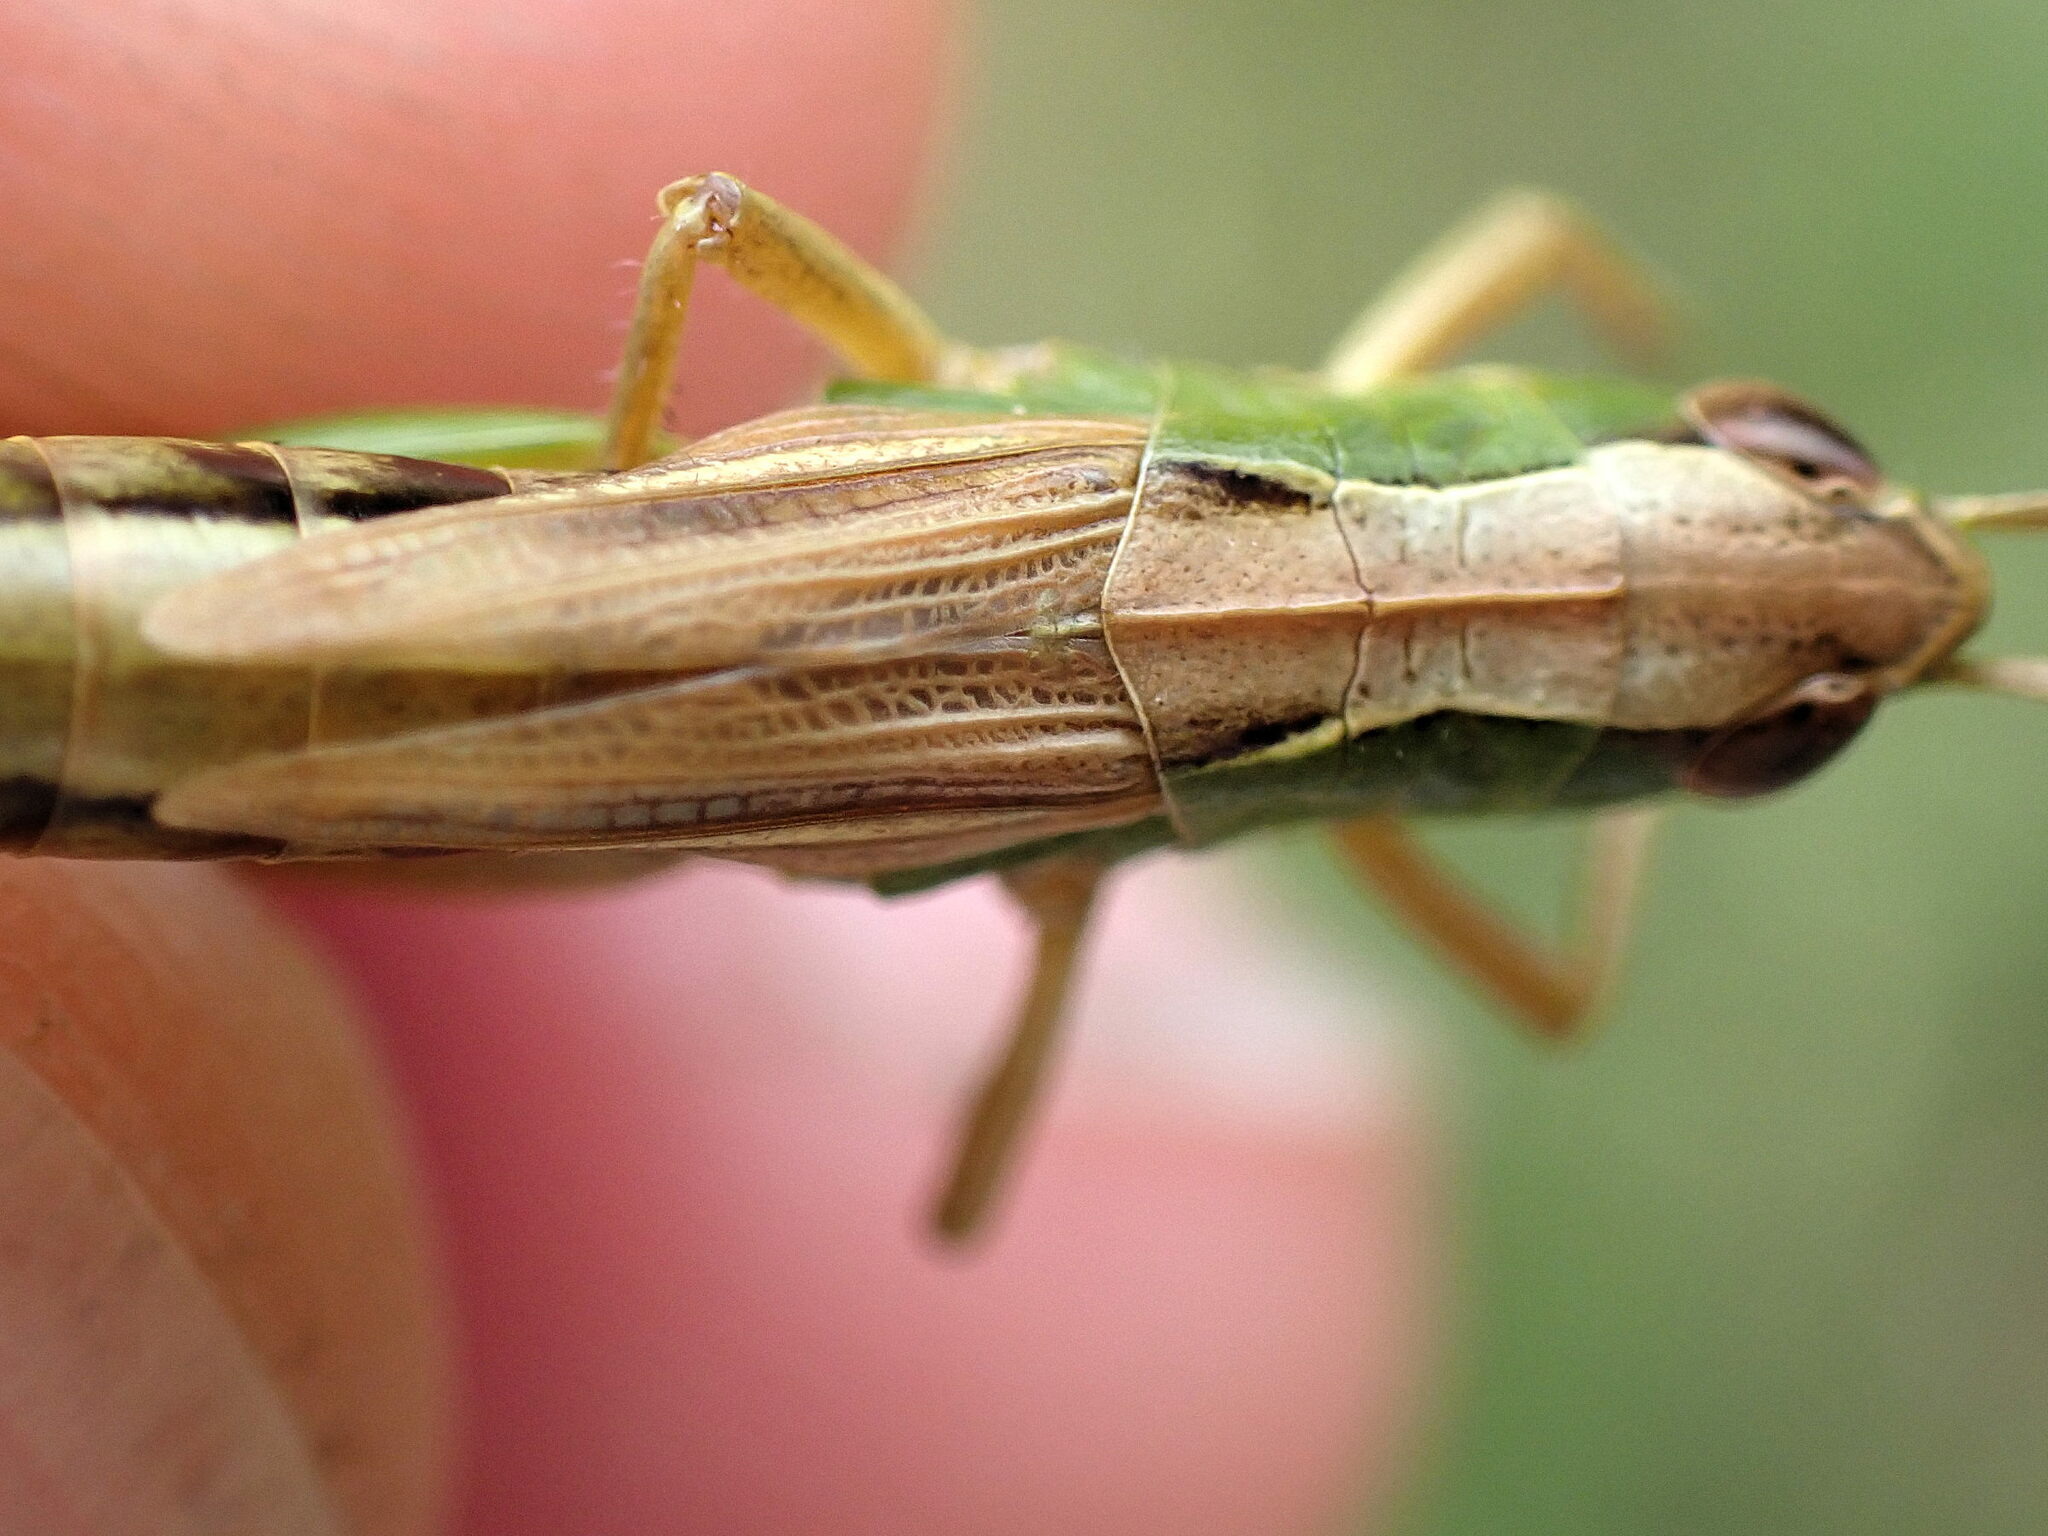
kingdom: Animalia
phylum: Arthropoda
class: Insecta
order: Orthoptera
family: Acrididae
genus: Pseudochorthippus
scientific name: Pseudochorthippus parallelus
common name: Meadow grasshopper
